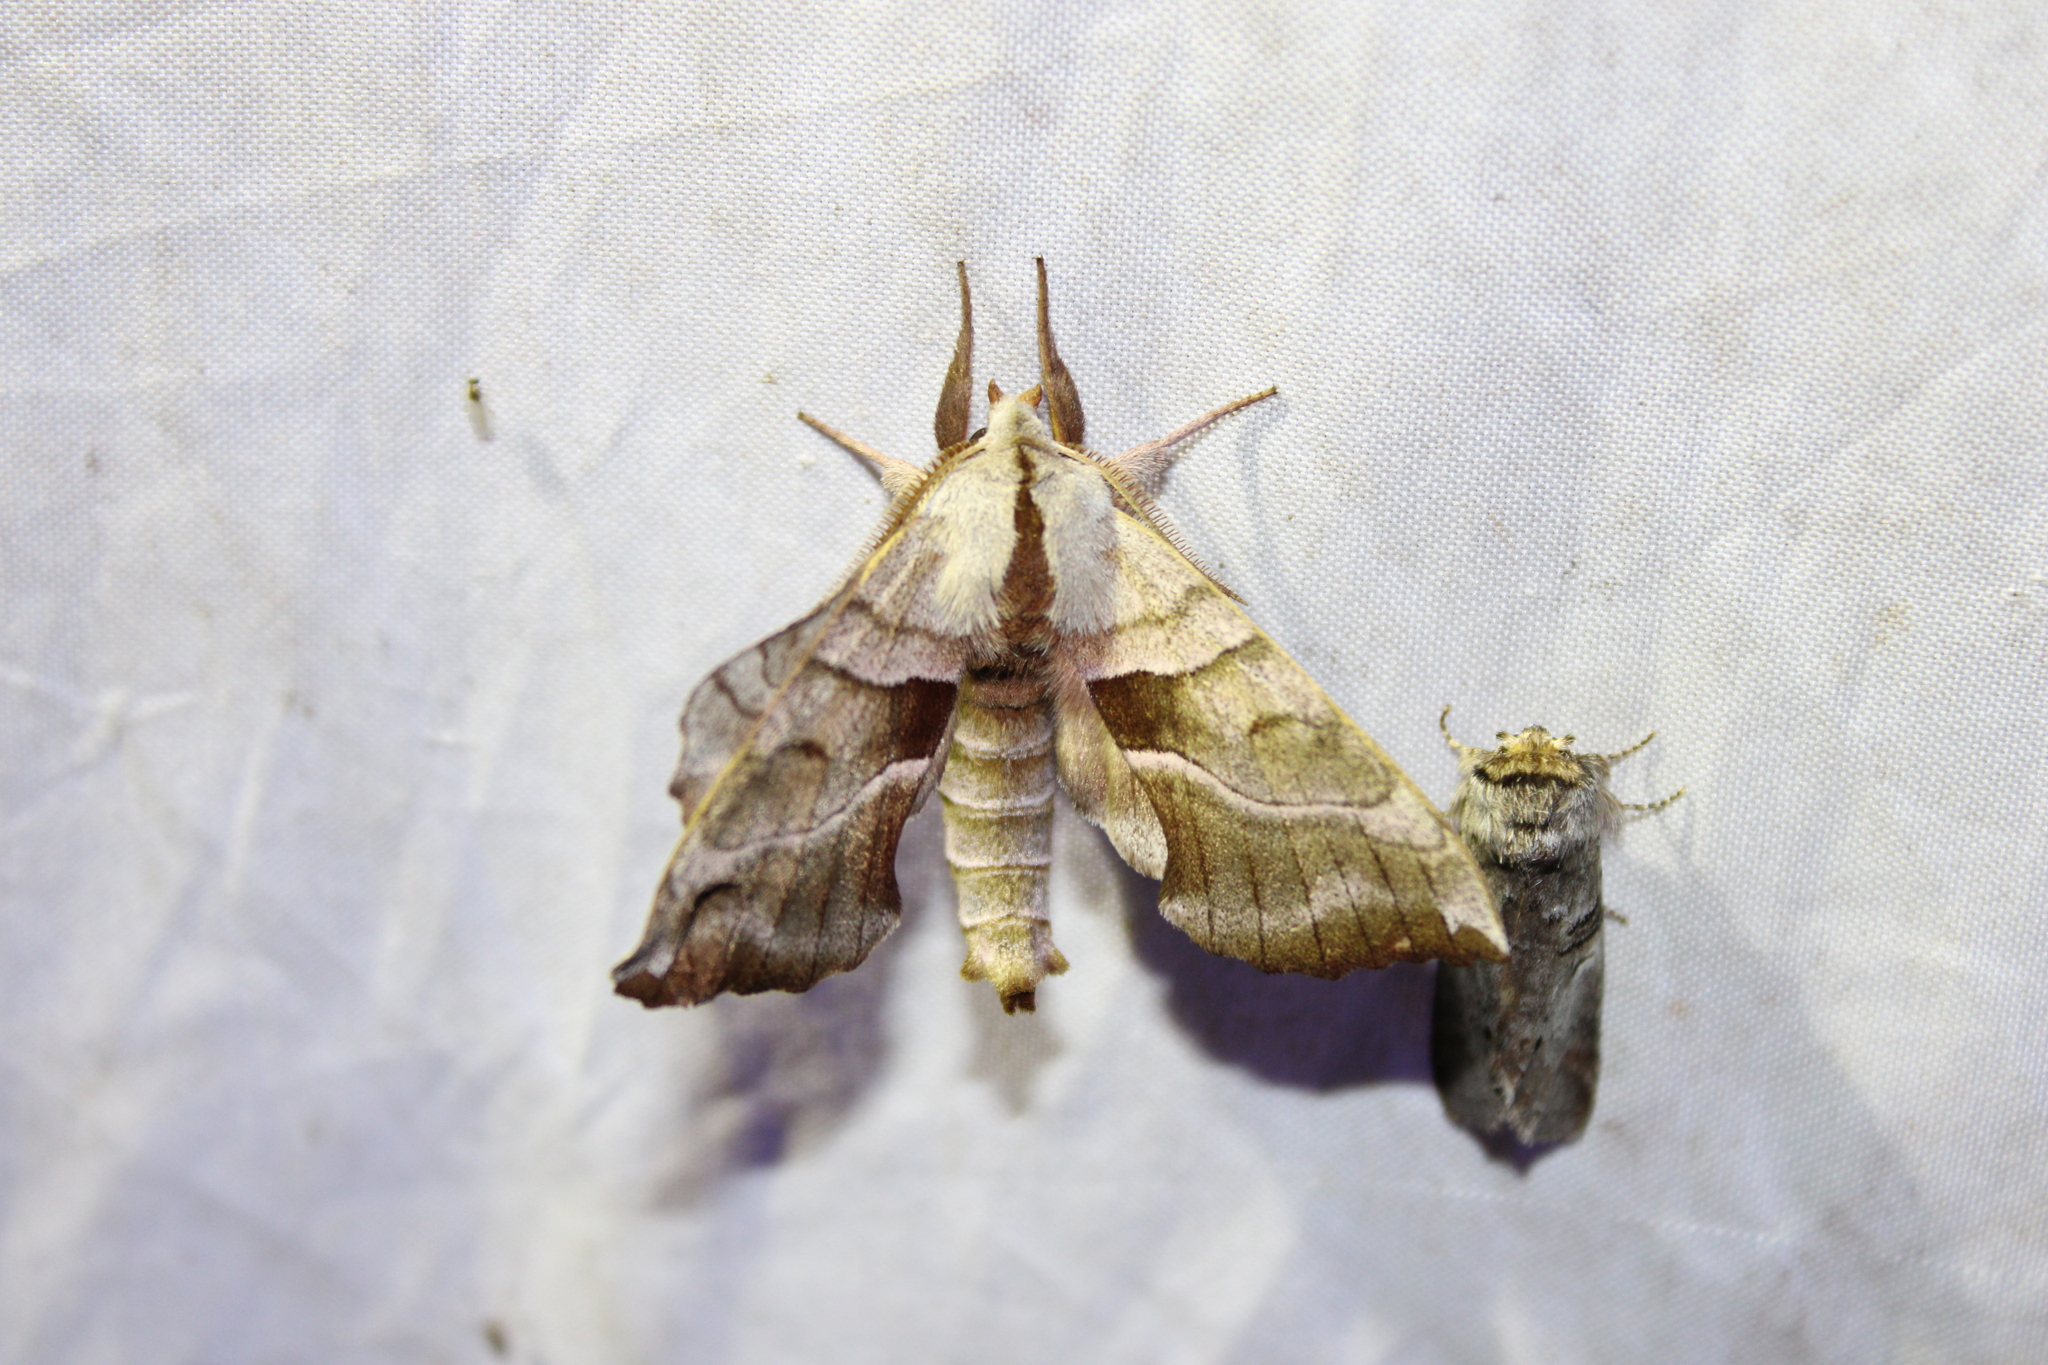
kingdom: Animalia
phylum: Arthropoda
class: Insecta
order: Lepidoptera
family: Sphingidae
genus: Amorpha
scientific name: Amorpha juglandis
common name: Walnut sphinx
